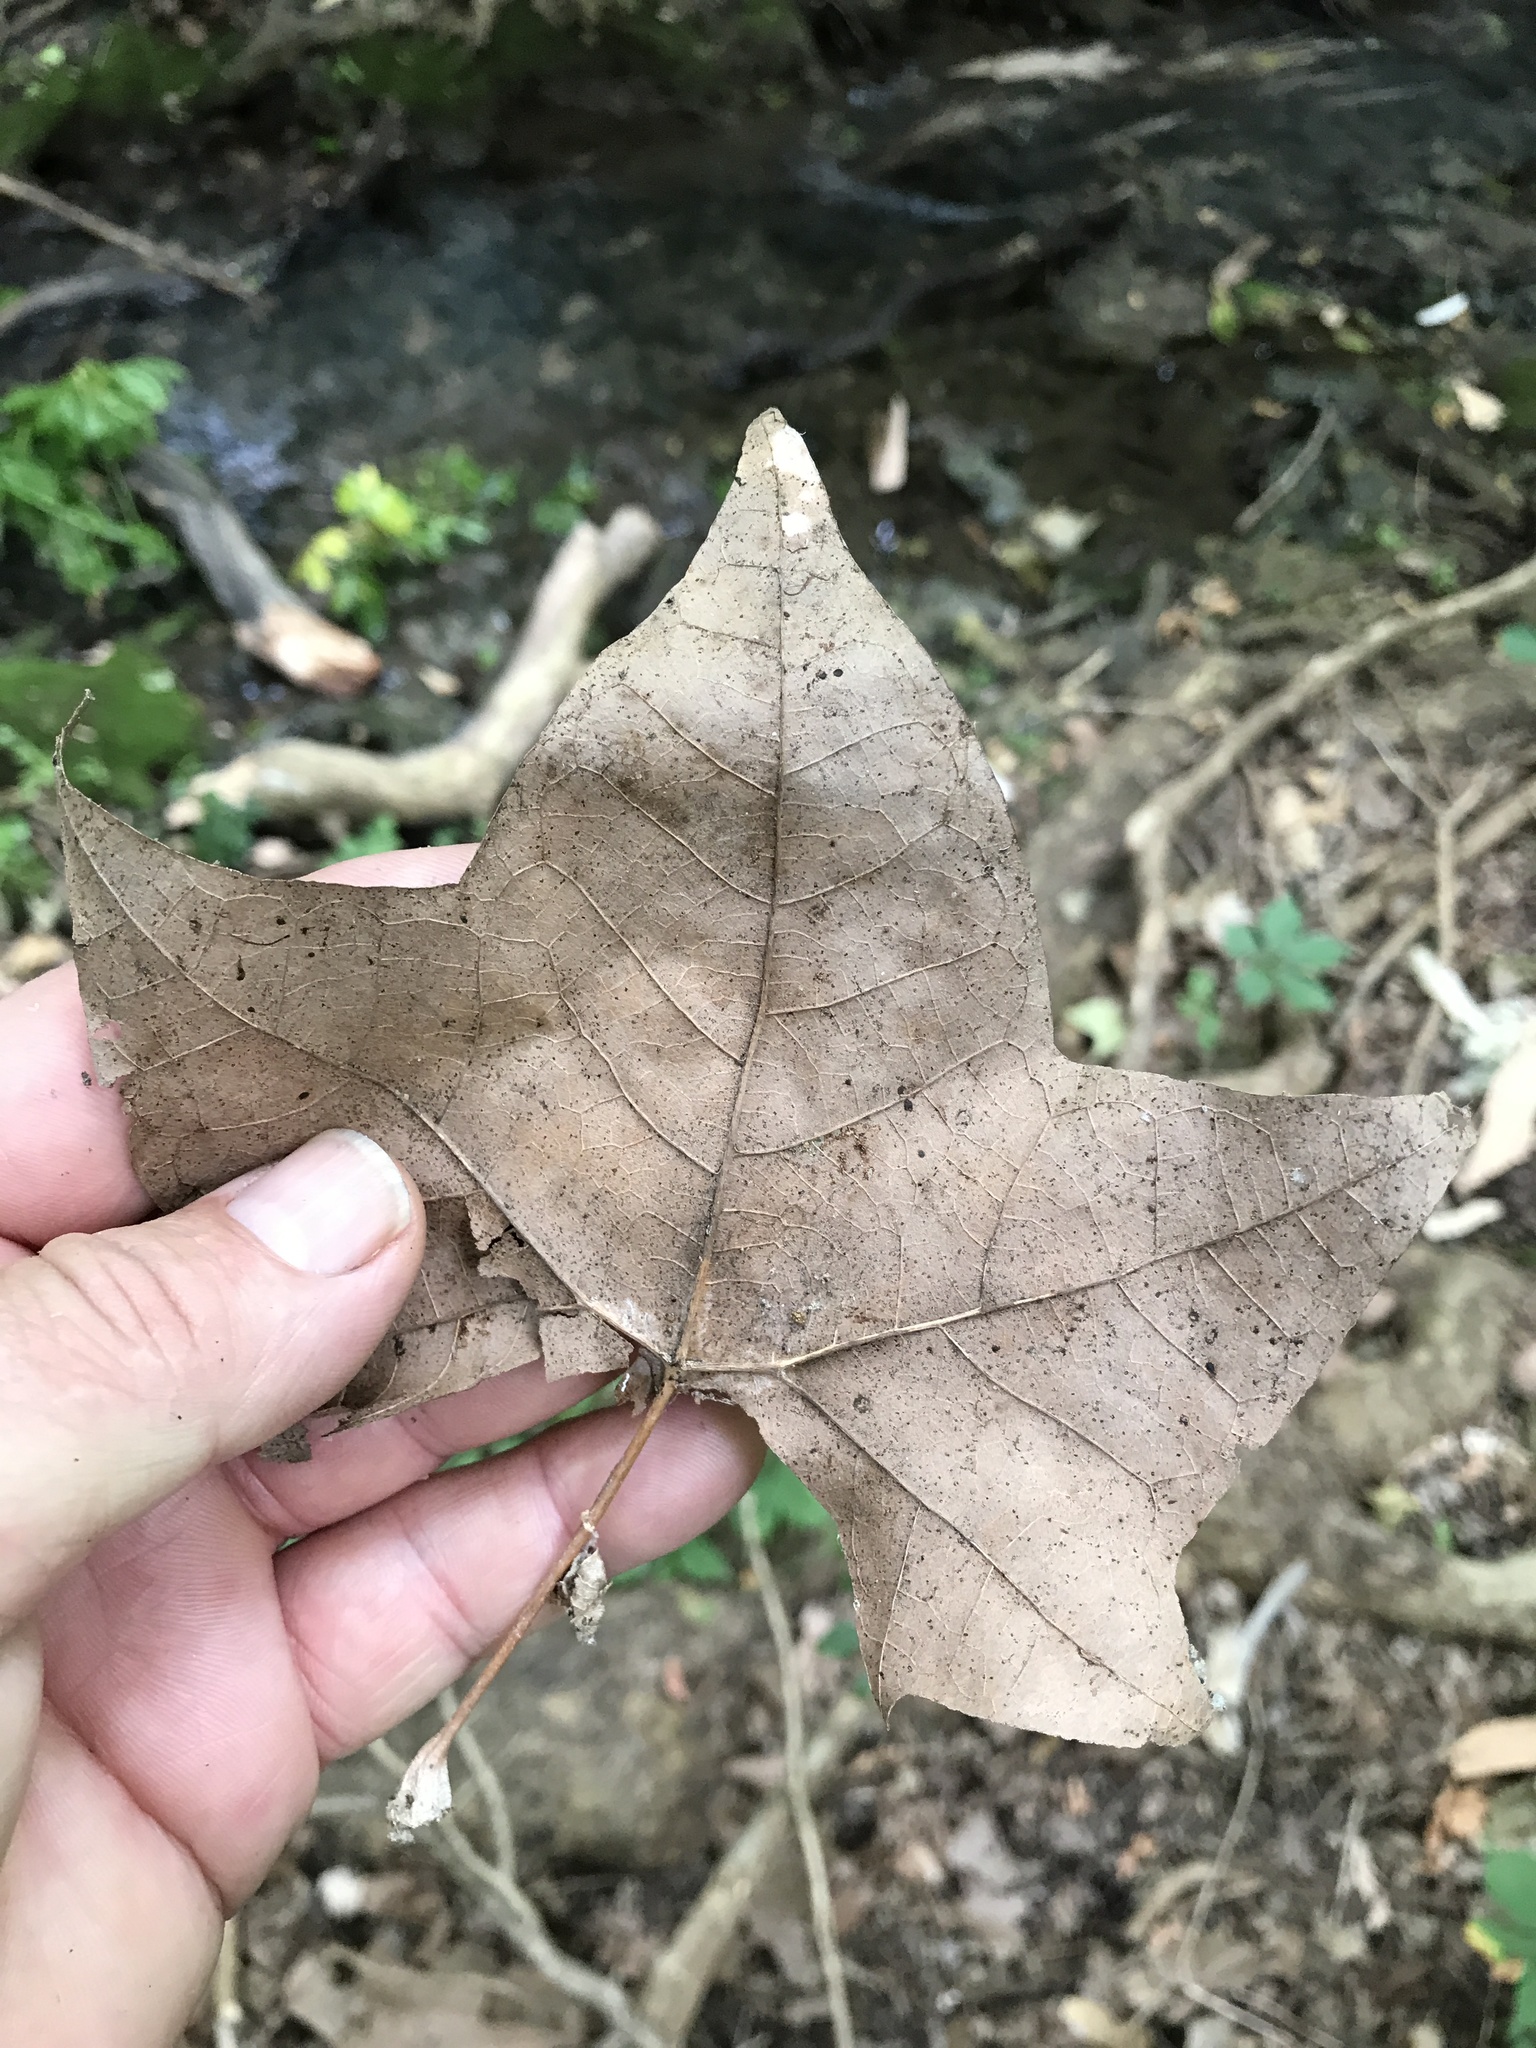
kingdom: Plantae
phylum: Tracheophyta
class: Magnoliopsida
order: Proteales
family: Platanaceae
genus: Platanus
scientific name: Platanus occidentalis
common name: American sycamore
